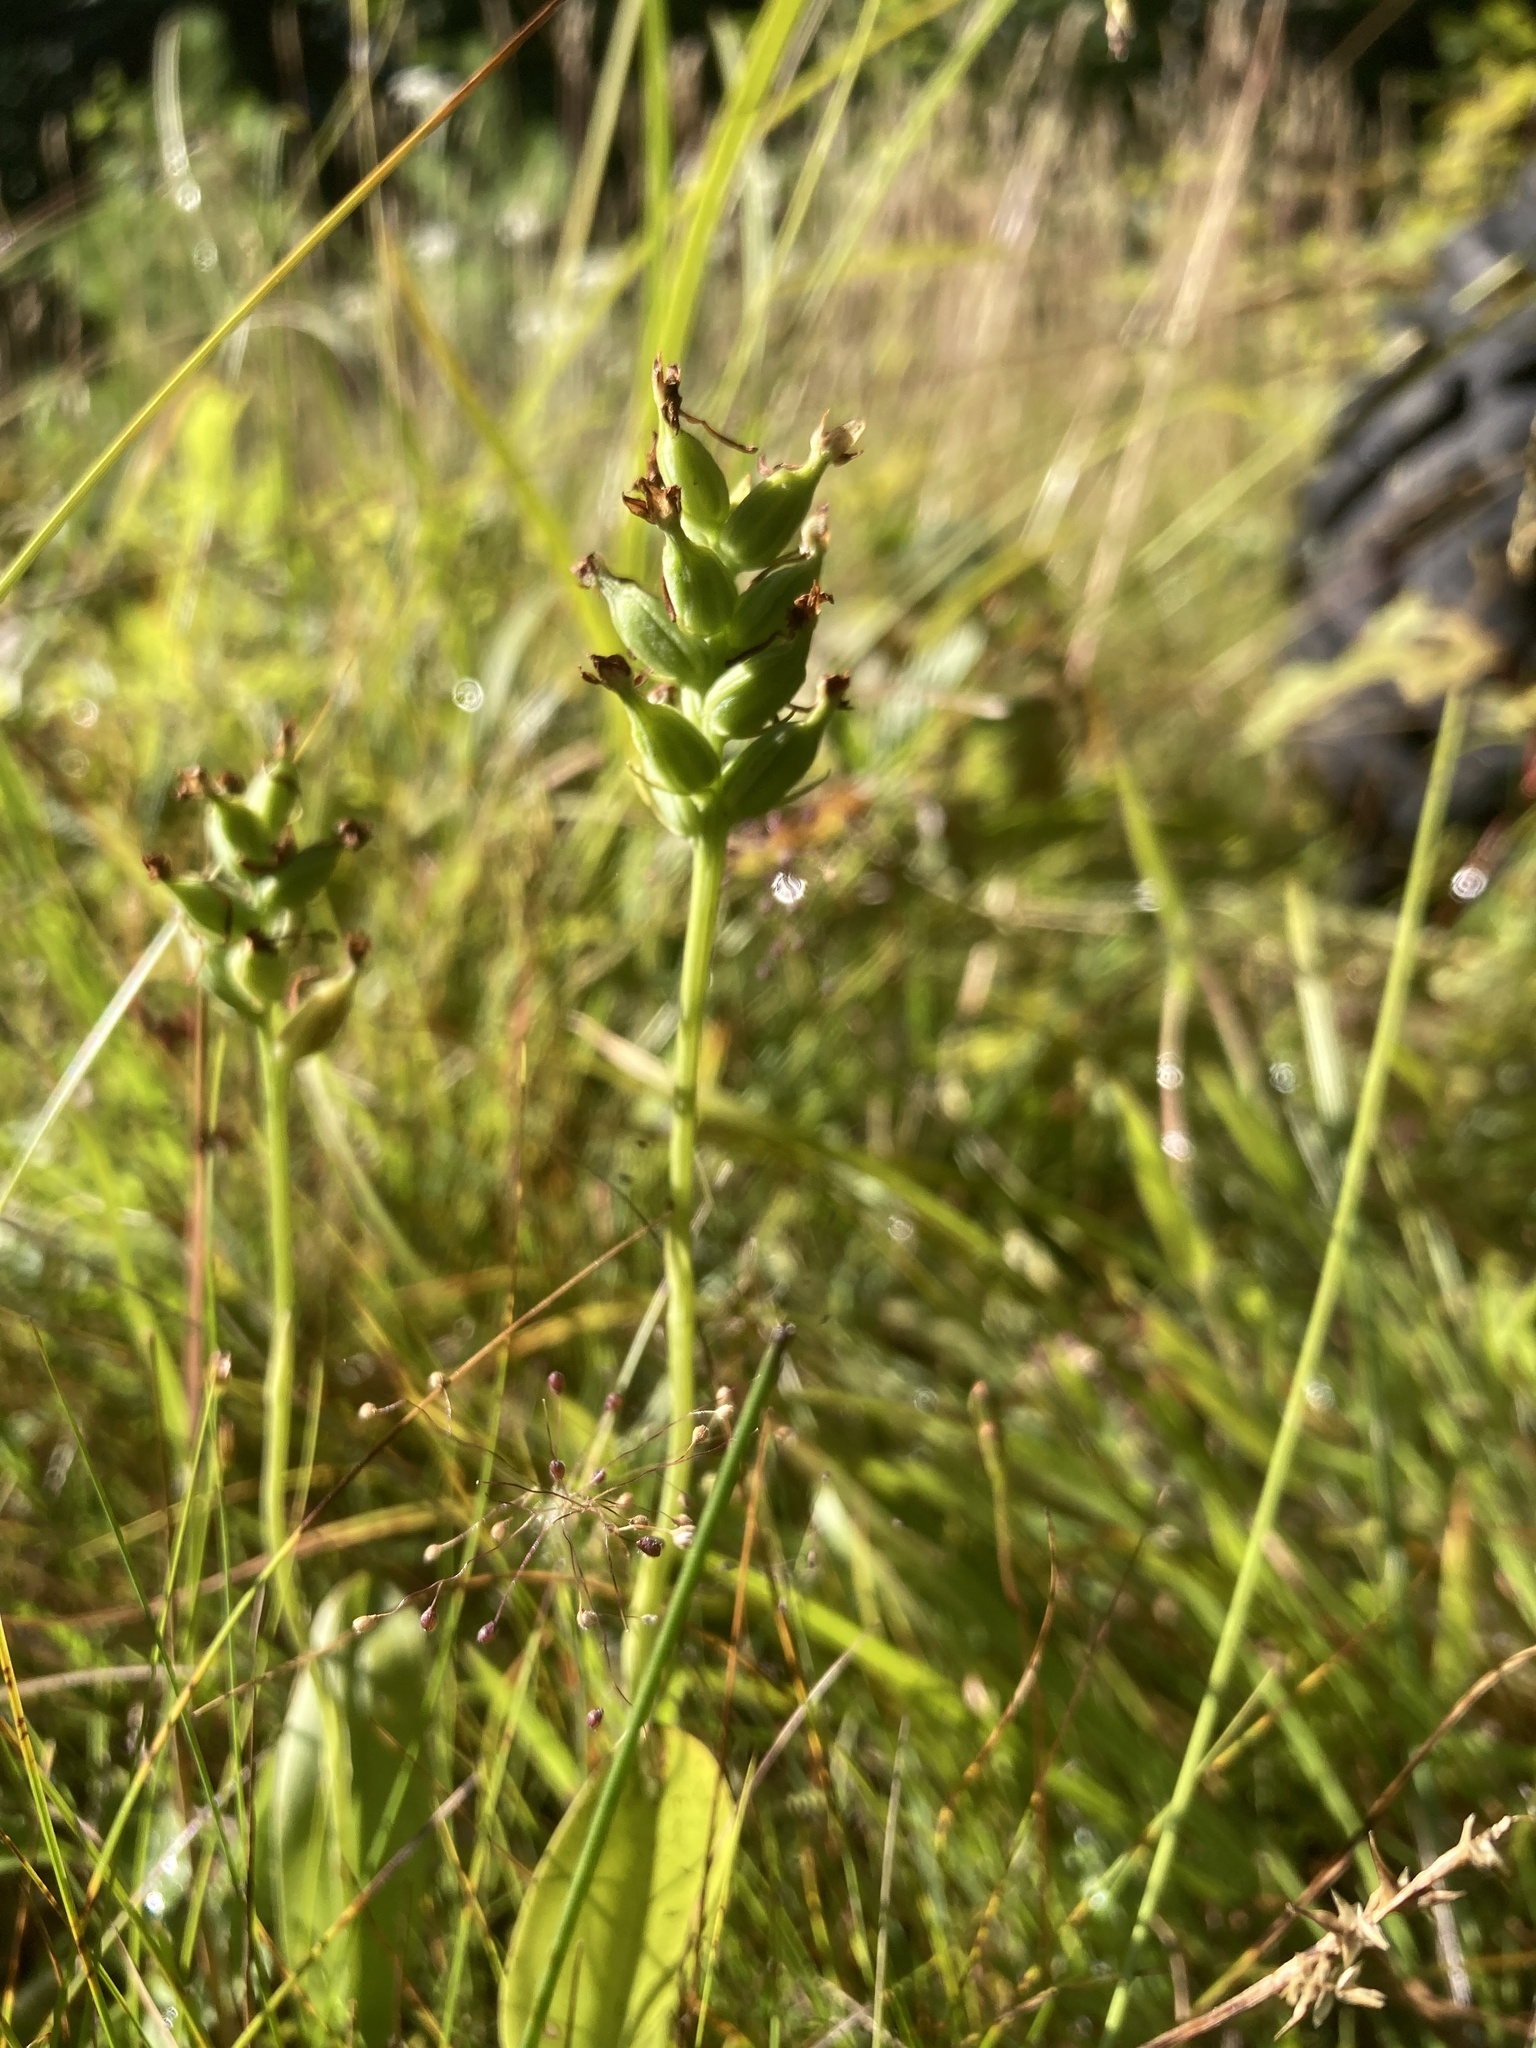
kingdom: Plantae
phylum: Tracheophyta
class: Liliopsida
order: Asparagales
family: Orchidaceae
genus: Platanthera
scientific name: Platanthera clavellata
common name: Club-spur orchid
